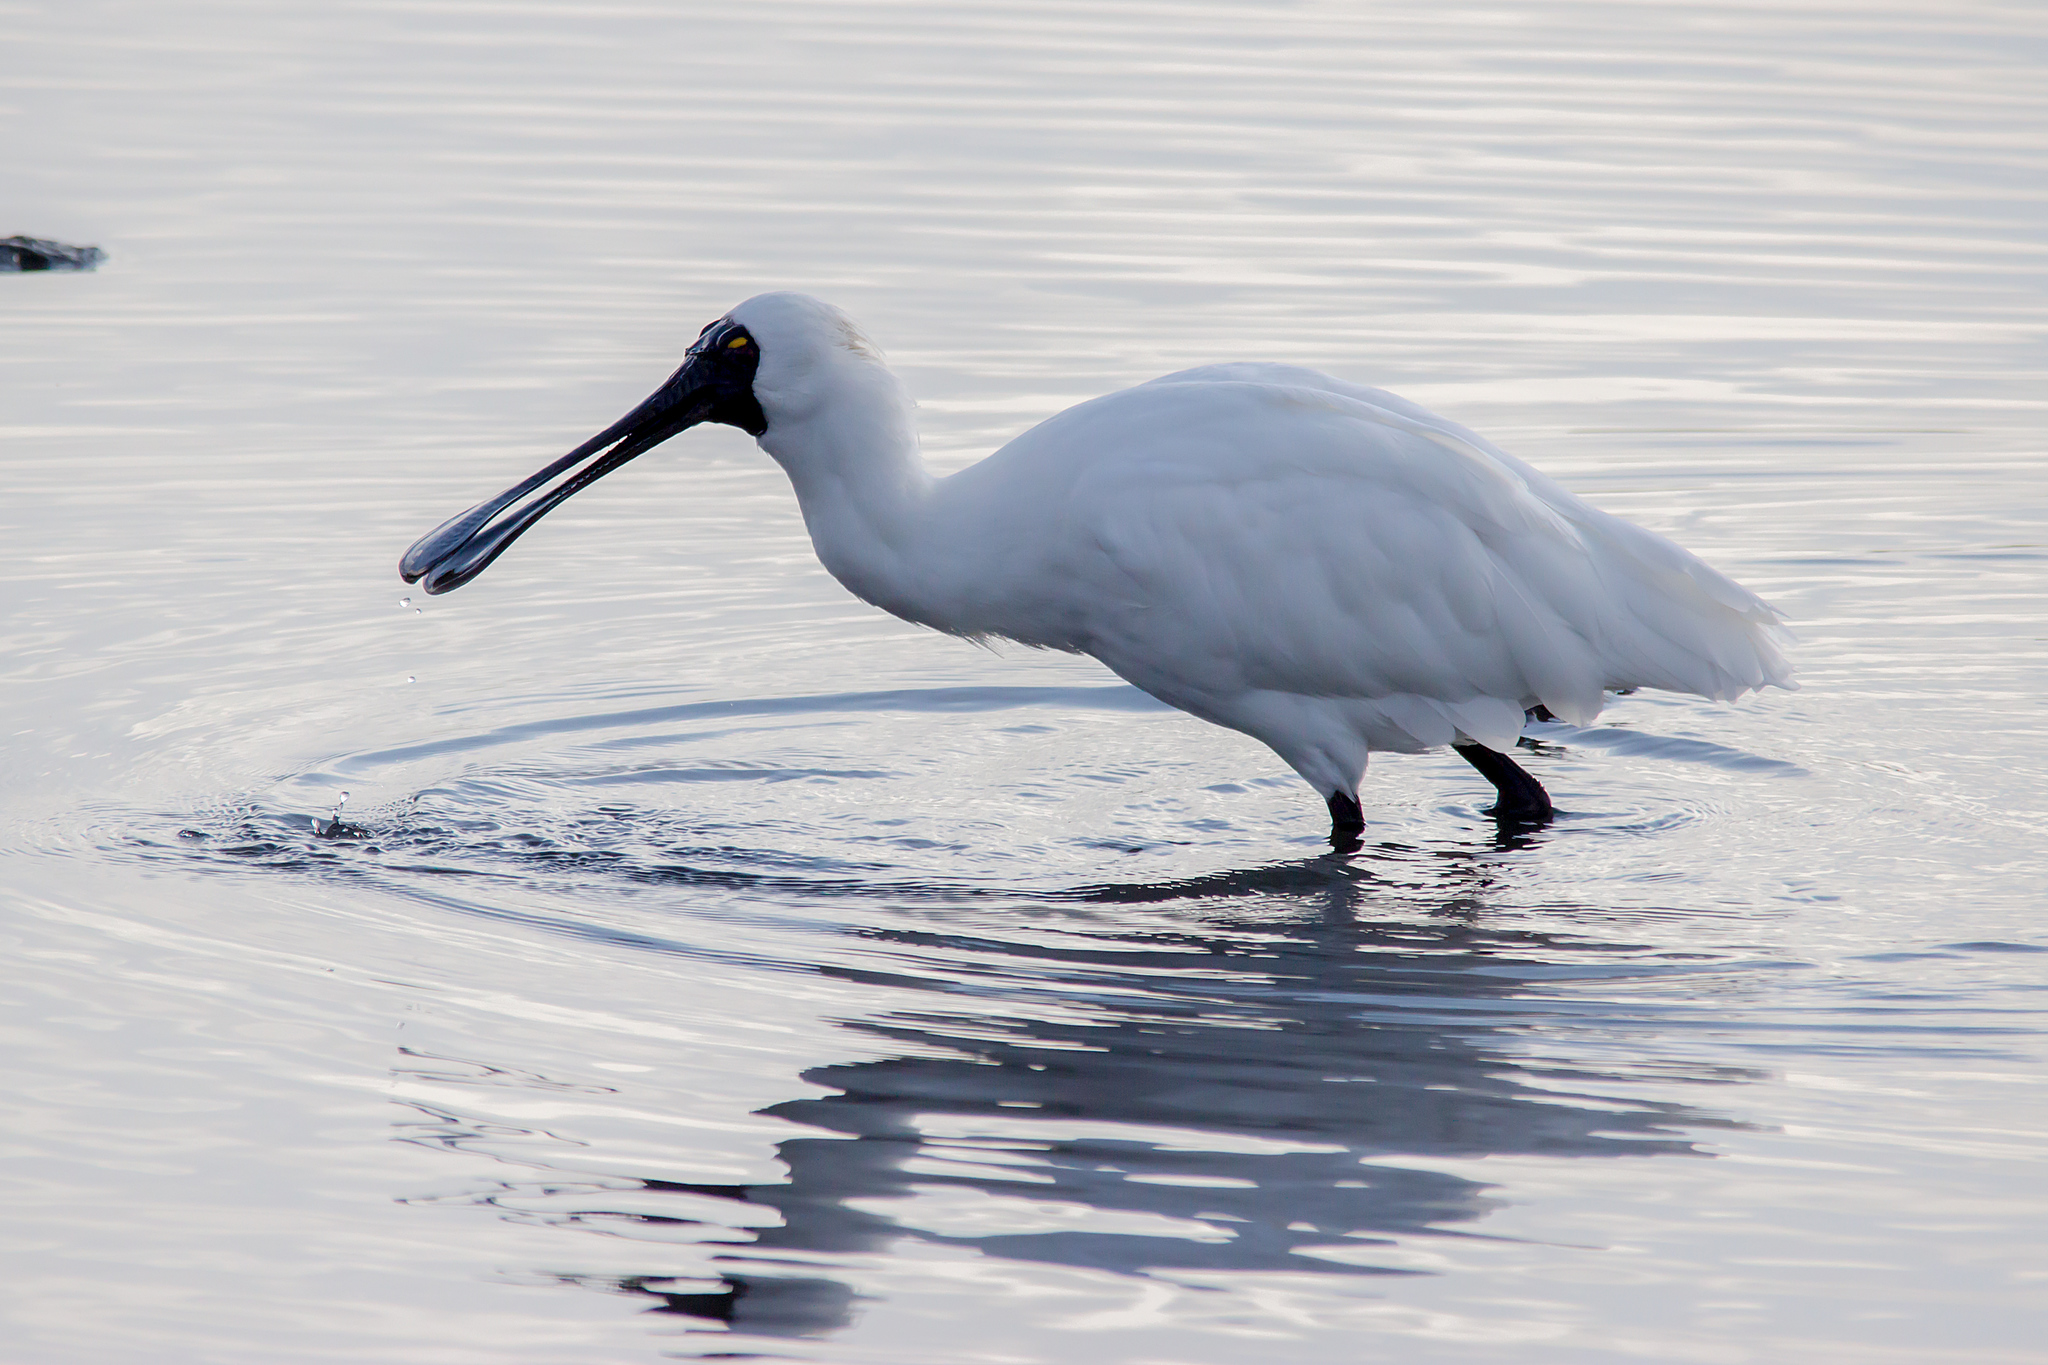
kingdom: Animalia
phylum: Chordata
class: Aves
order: Pelecaniformes
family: Threskiornithidae
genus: Platalea
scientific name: Platalea regia
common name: Royal spoonbill
